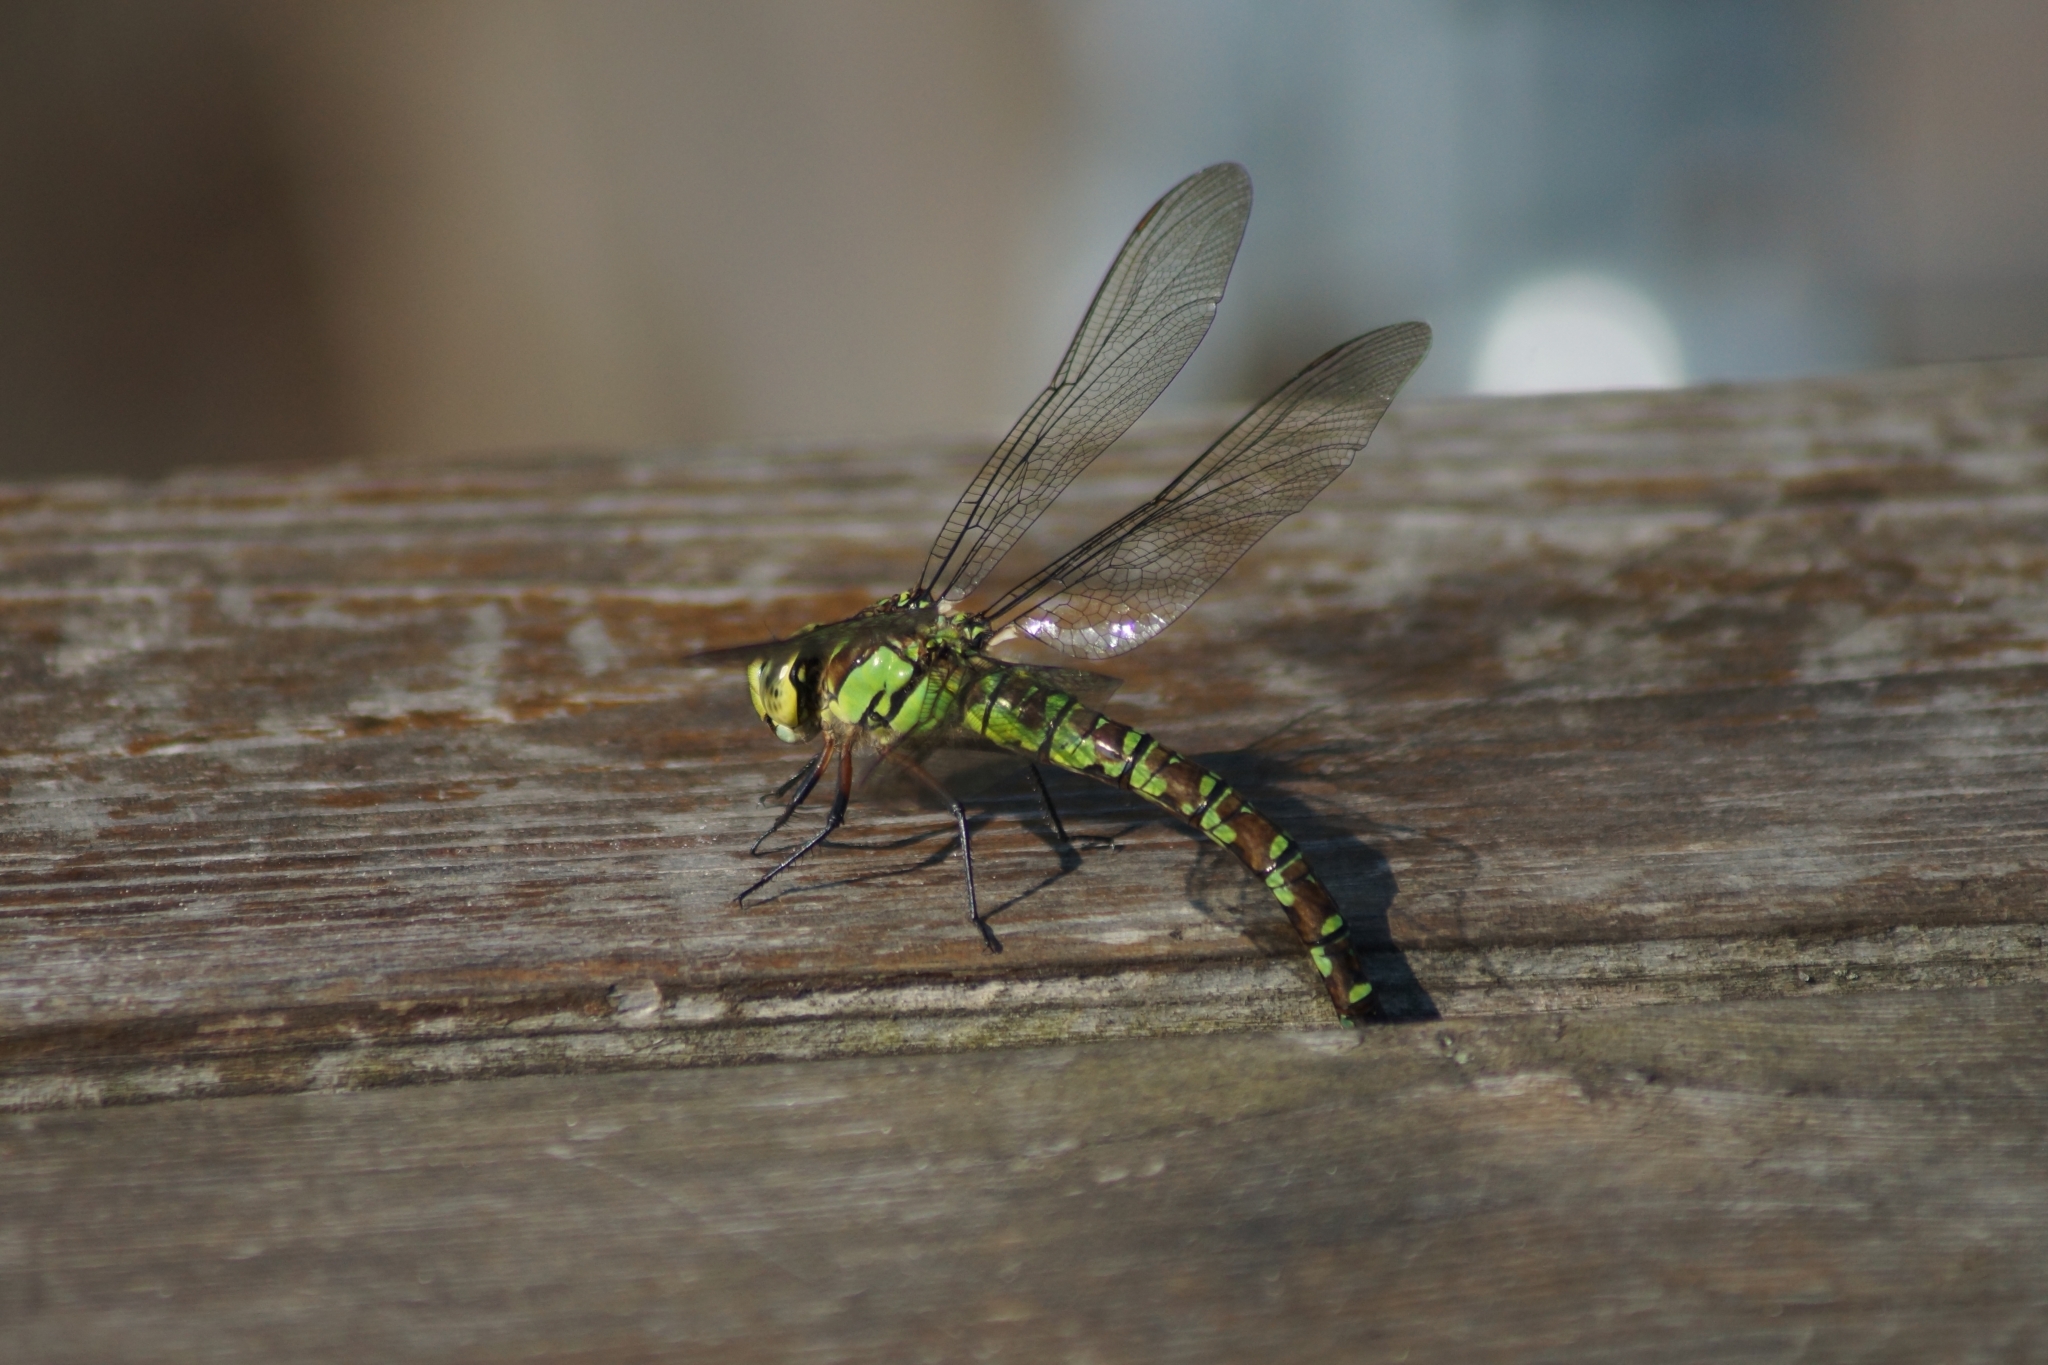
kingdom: Animalia
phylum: Arthropoda
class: Insecta
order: Odonata
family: Aeshnidae
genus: Aeshna
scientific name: Aeshna cyanea
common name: Southern hawker
